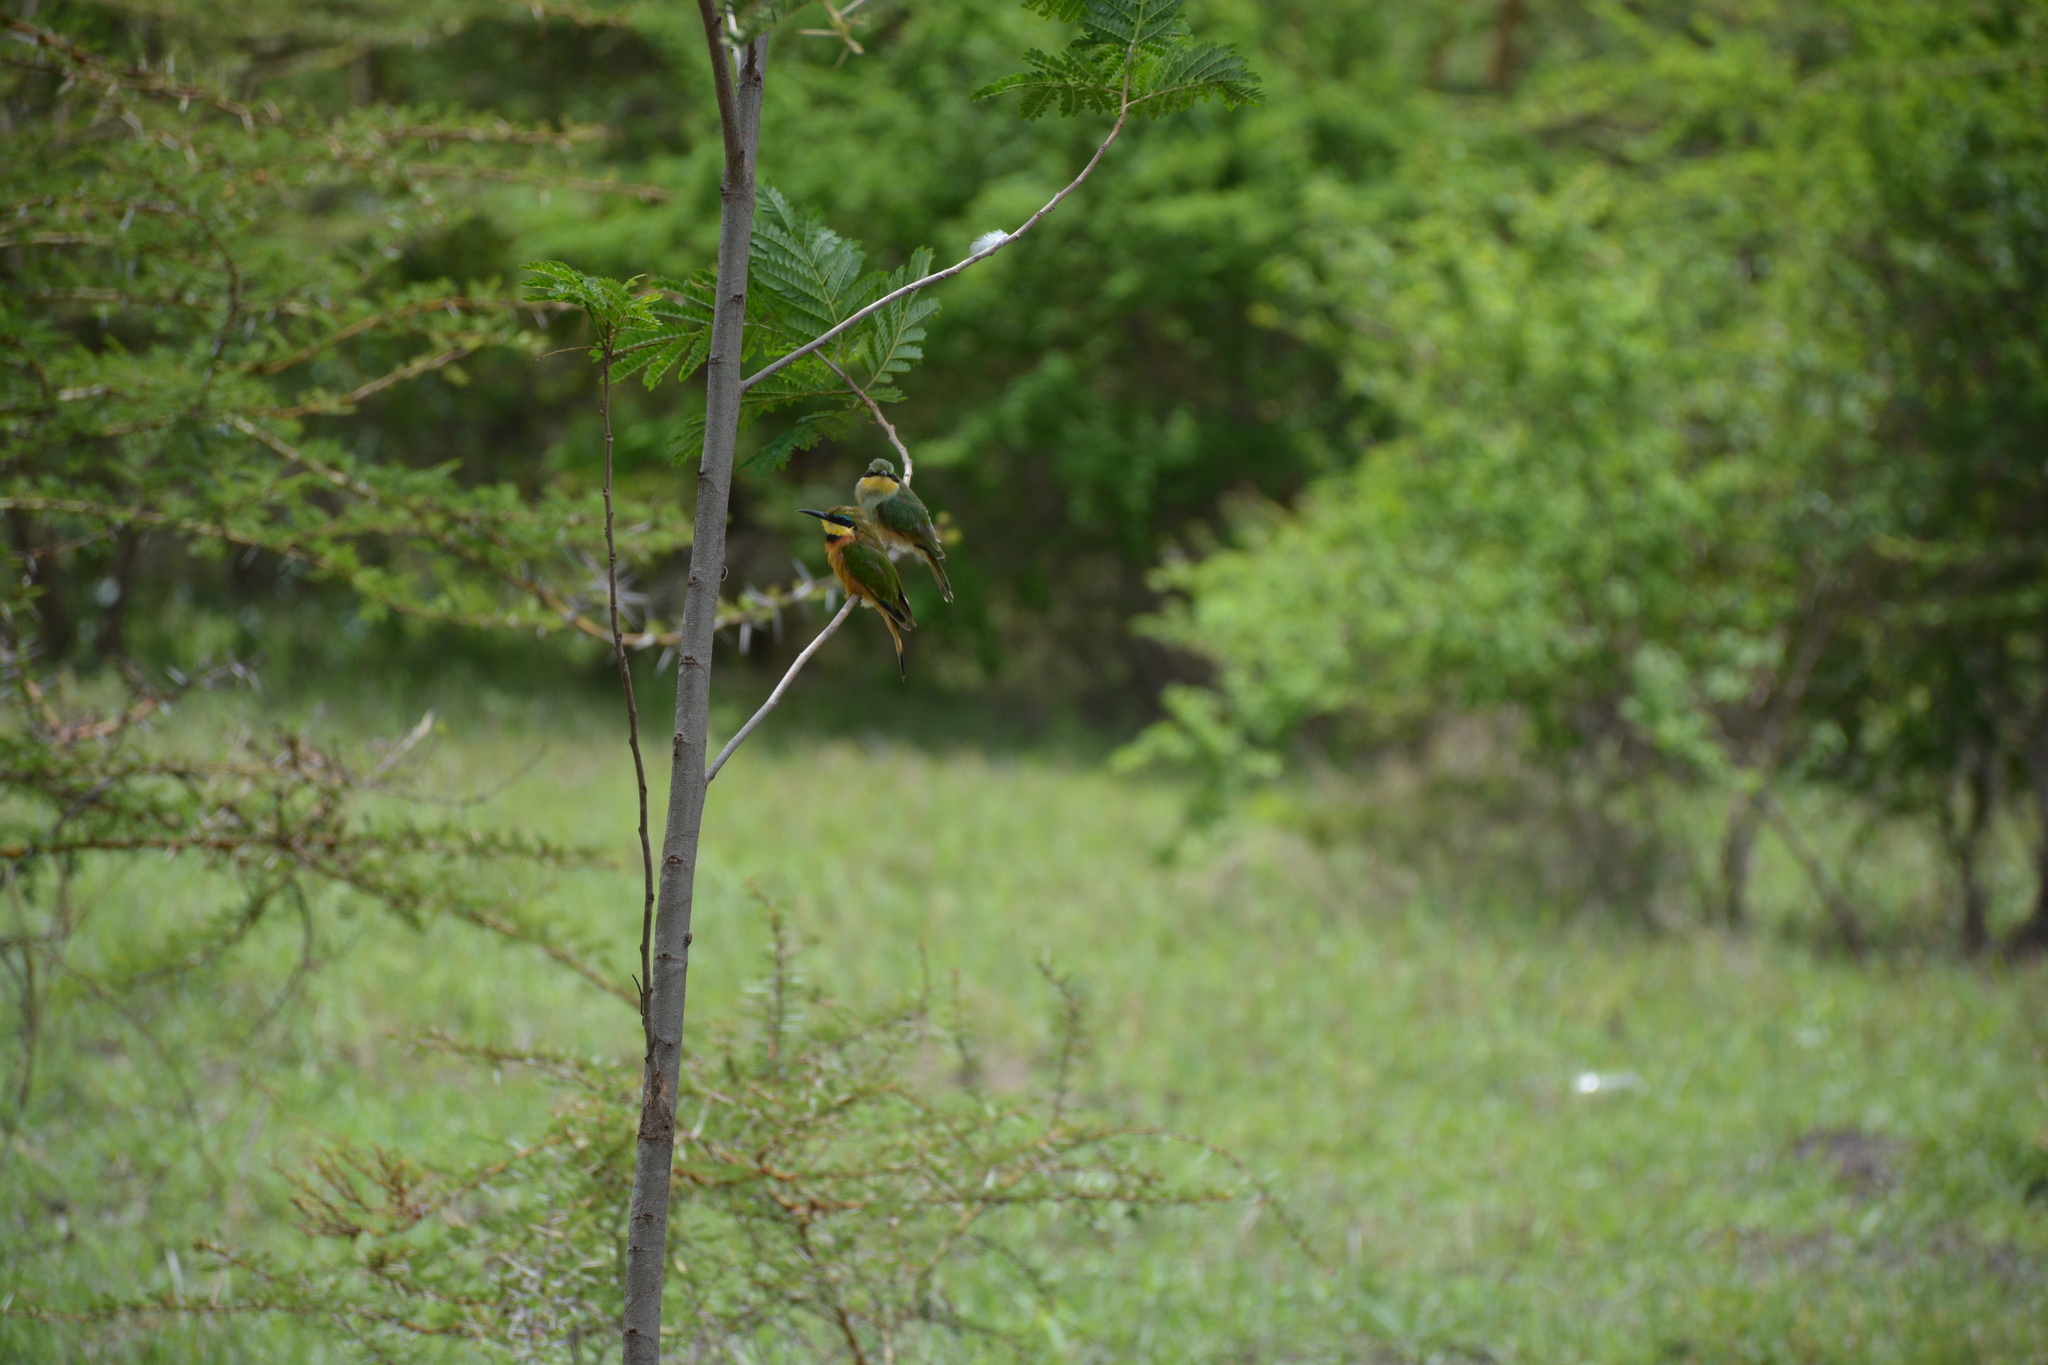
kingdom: Animalia
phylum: Chordata
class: Aves
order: Coraciiformes
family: Meropidae
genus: Merops
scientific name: Merops pusillus
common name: Little bee-eater
